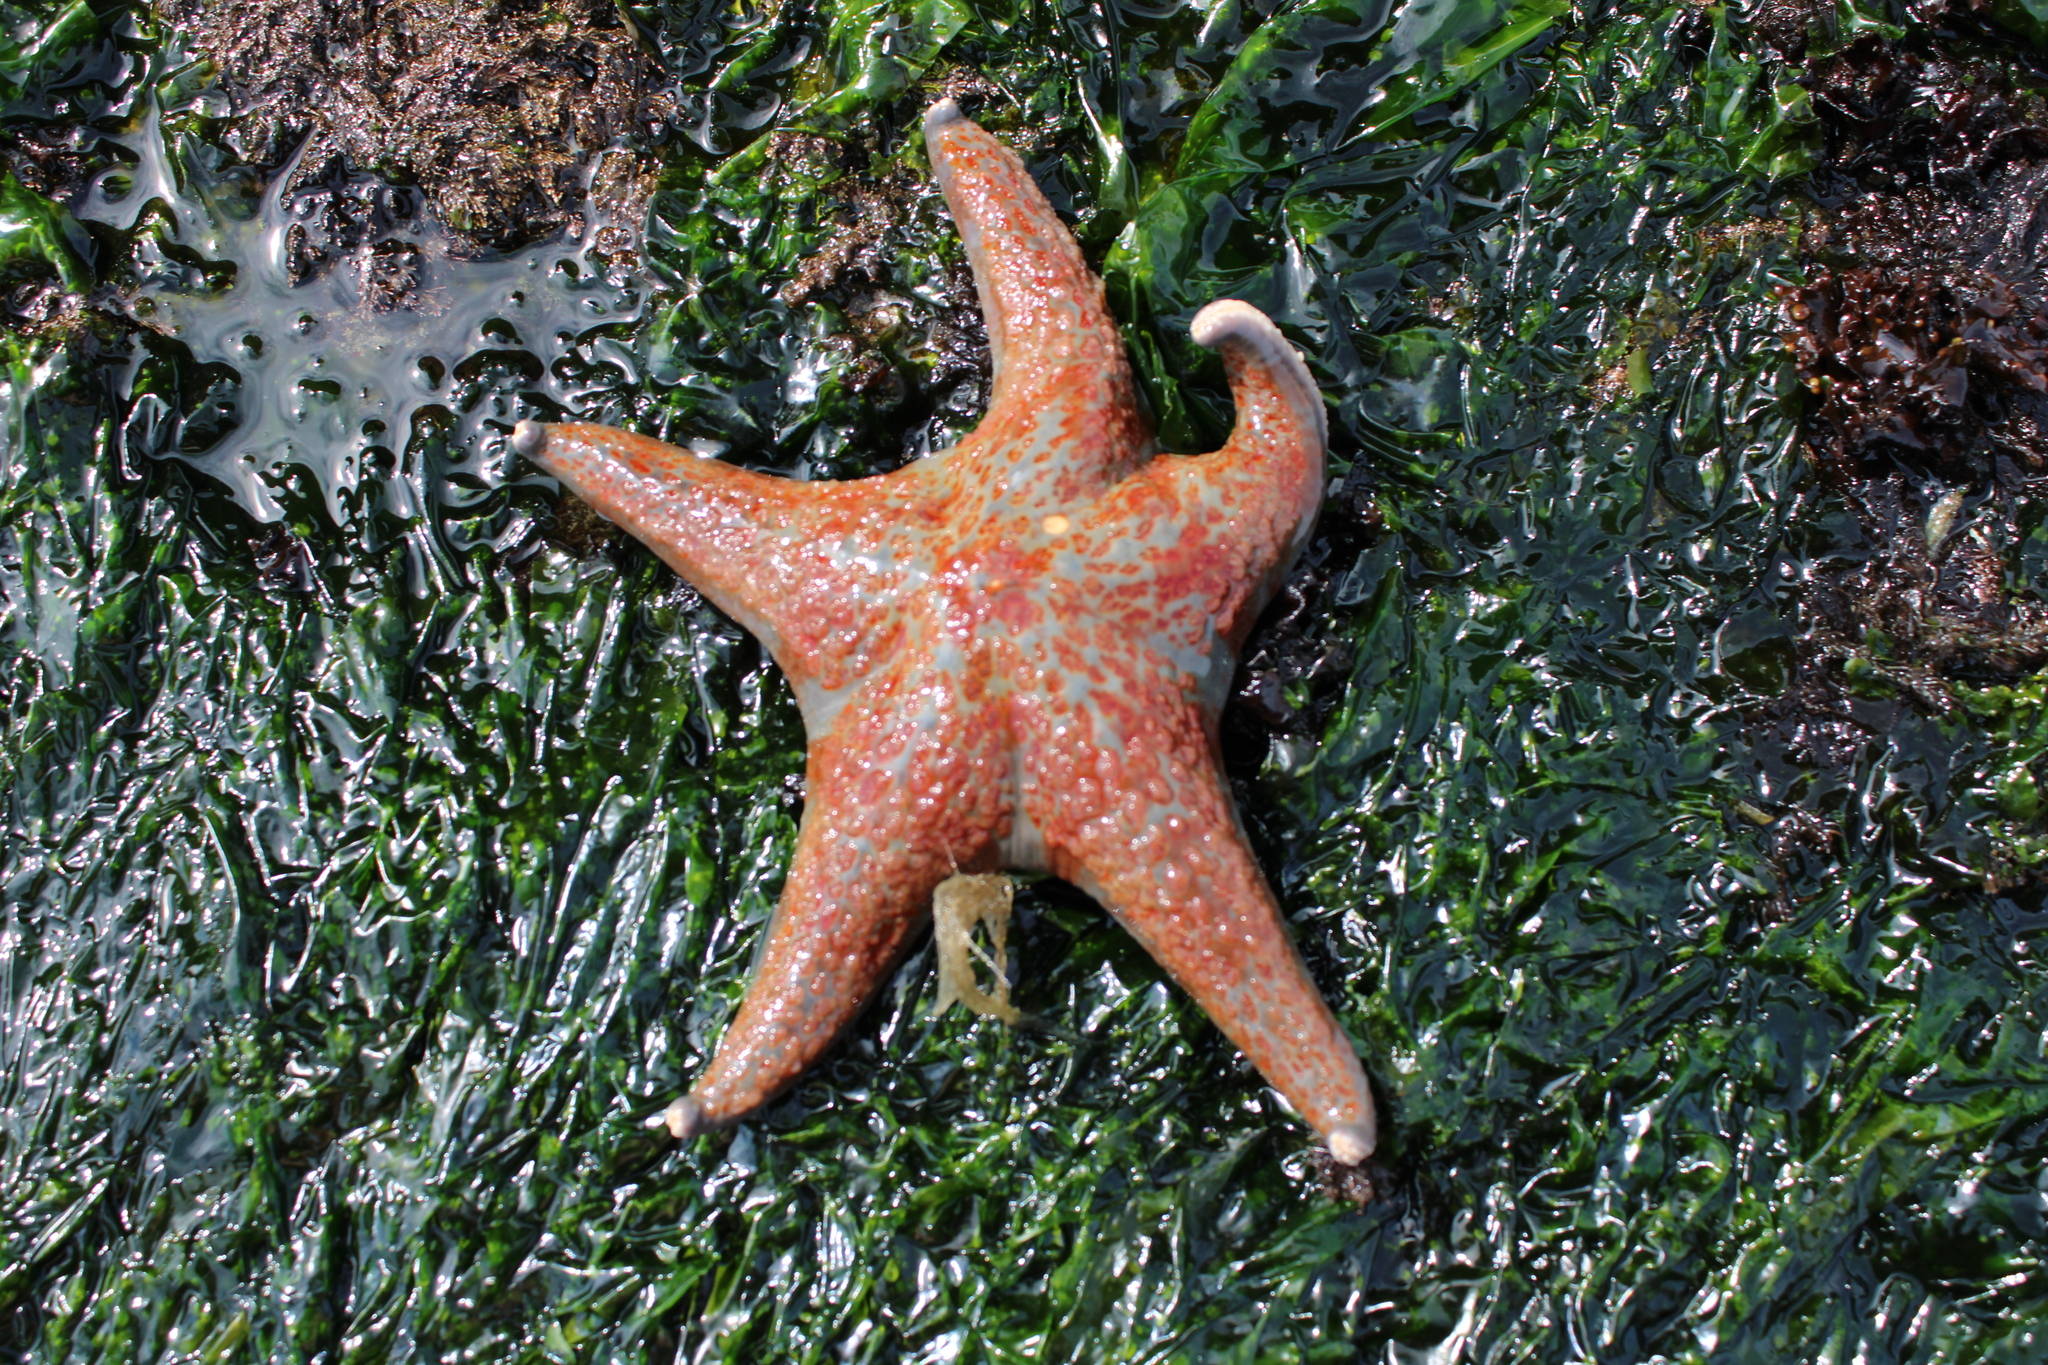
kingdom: Animalia
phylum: Echinodermata
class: Asteroidea
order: Valvatida
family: Asteropseidae
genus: Dermasterias
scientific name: Dermasterias imbricata
